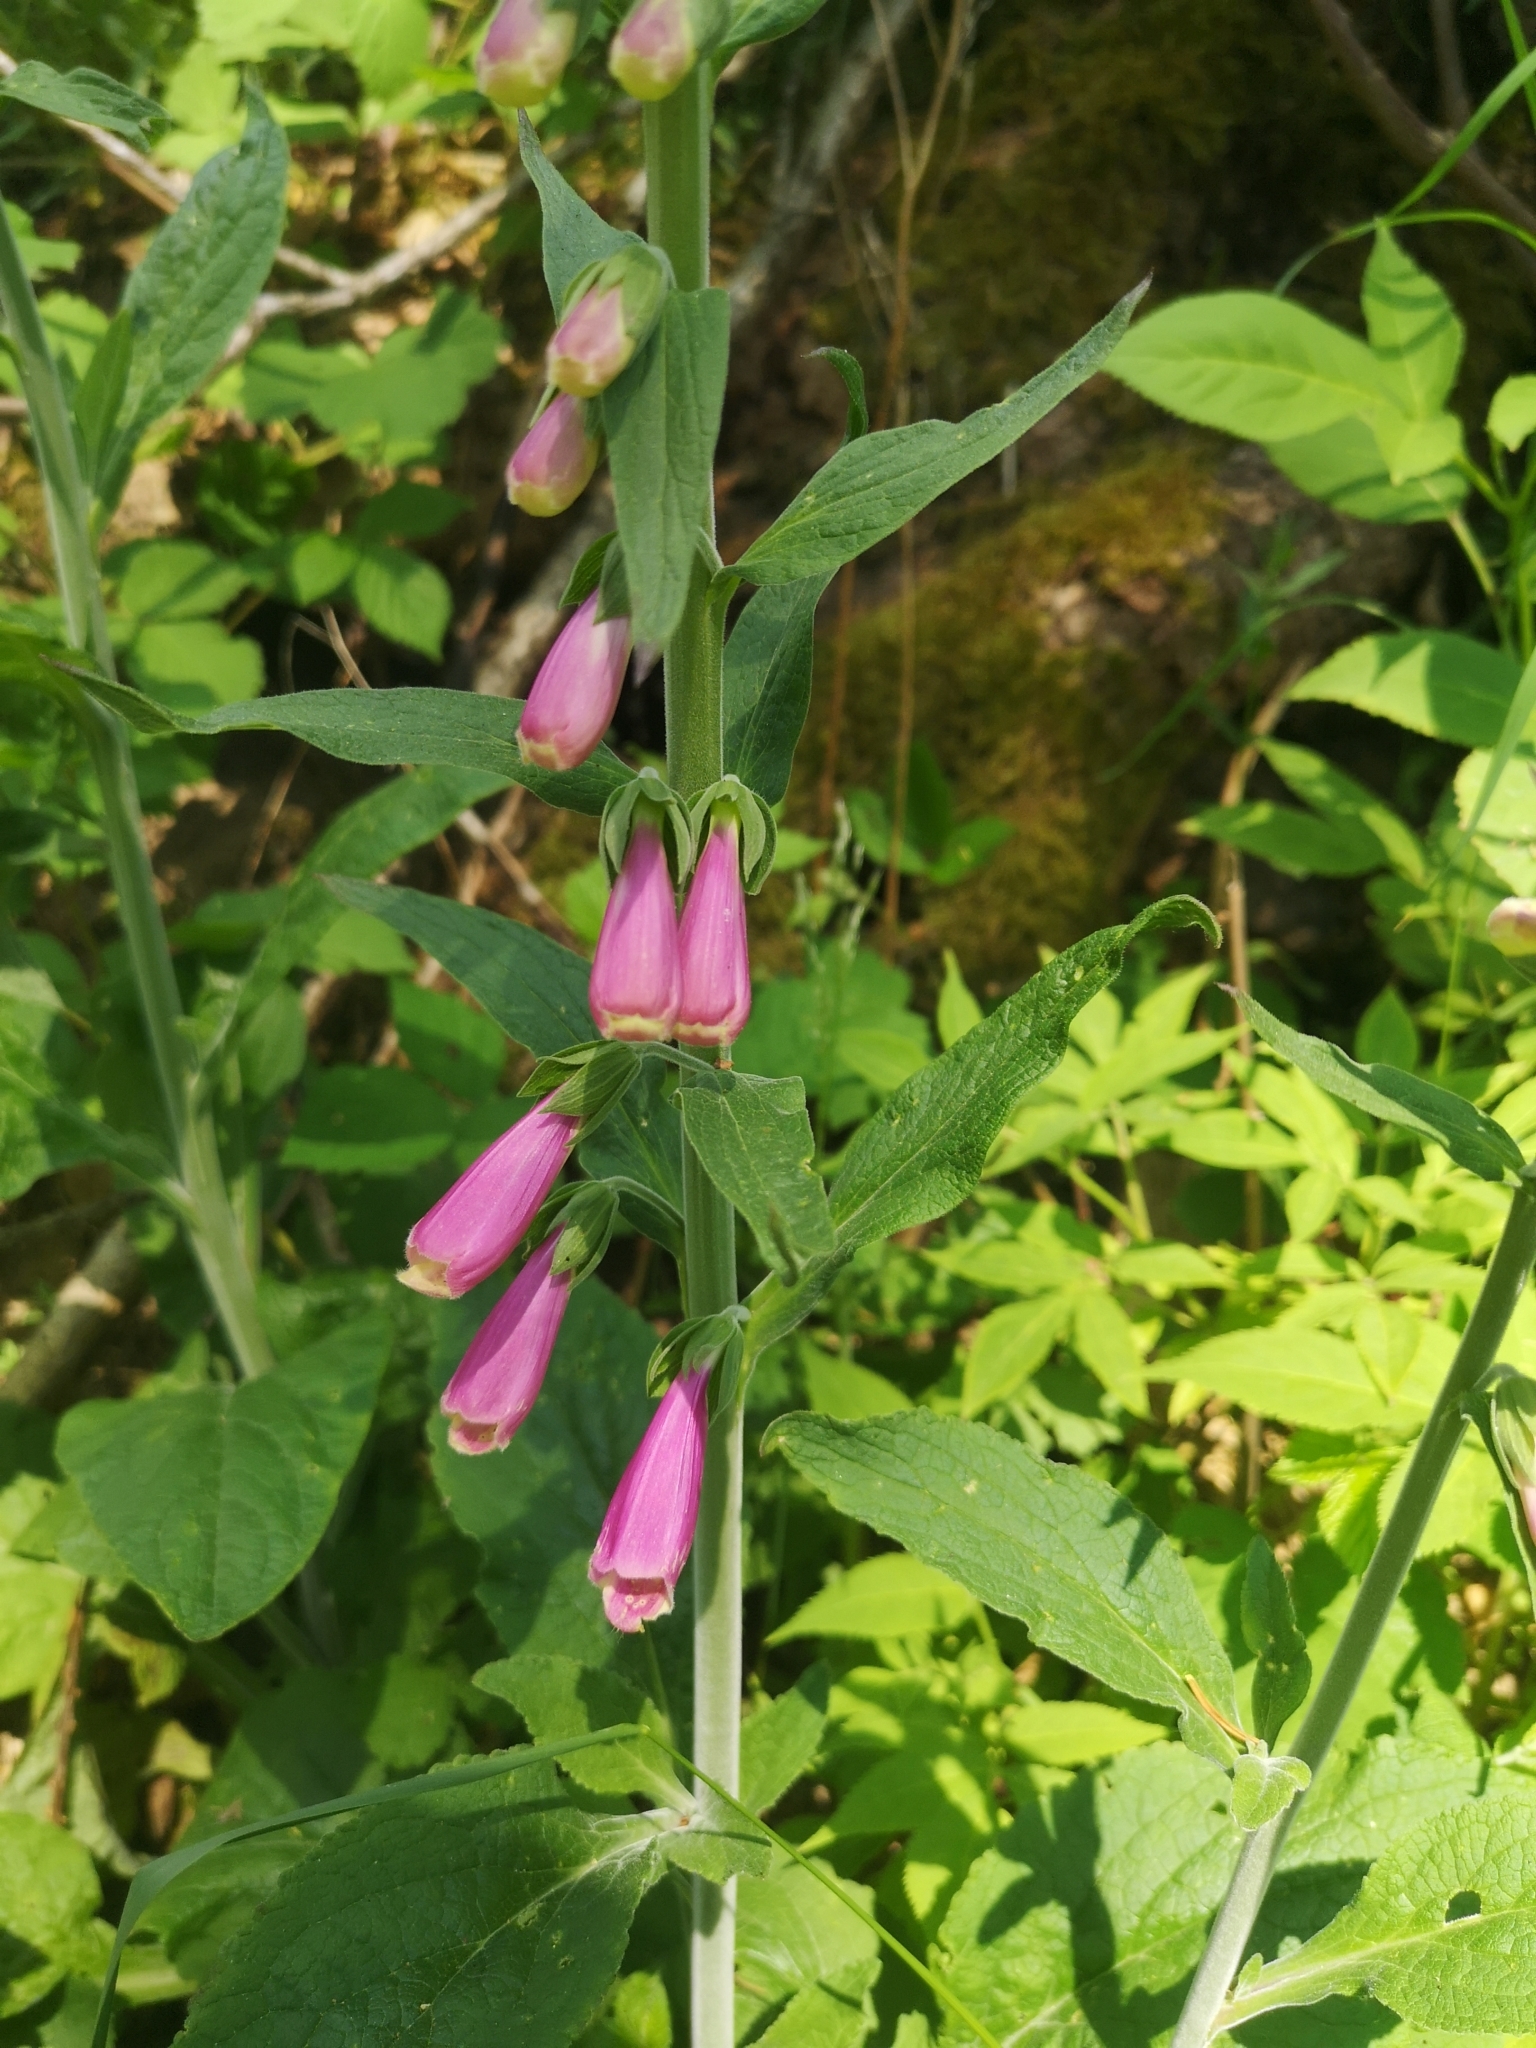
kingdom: Plantae
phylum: Tracheophyta
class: Magnoliopsida
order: Lamiales
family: Plantaginaceae
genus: Digitalis
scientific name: Digitalis purpurea
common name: Foxglove
